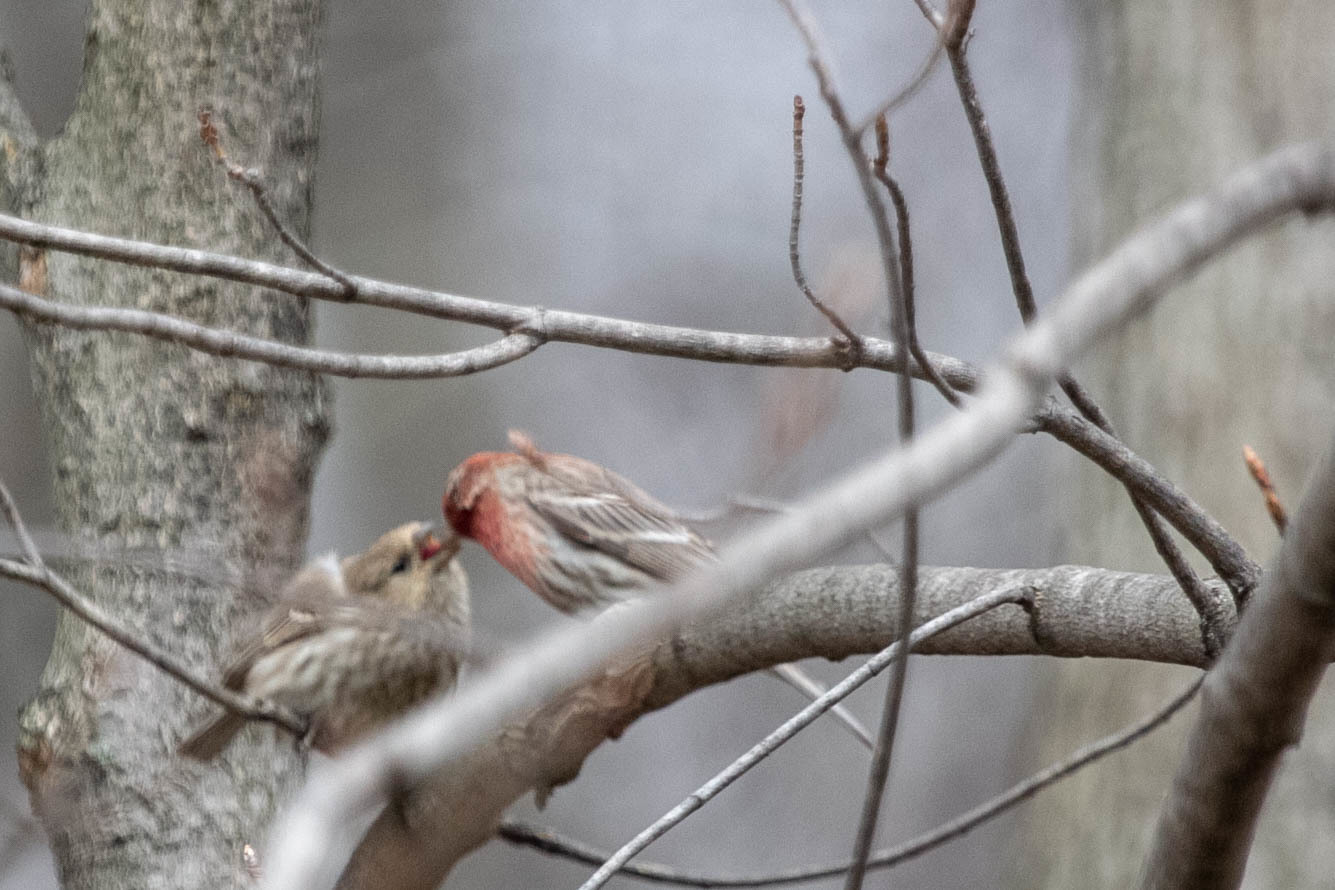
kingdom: Animalia
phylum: Chordata
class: Aves
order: Passeriformes
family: Fringillidae
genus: Haemorhous
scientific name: Haemorhous mexicanus
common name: House finch
